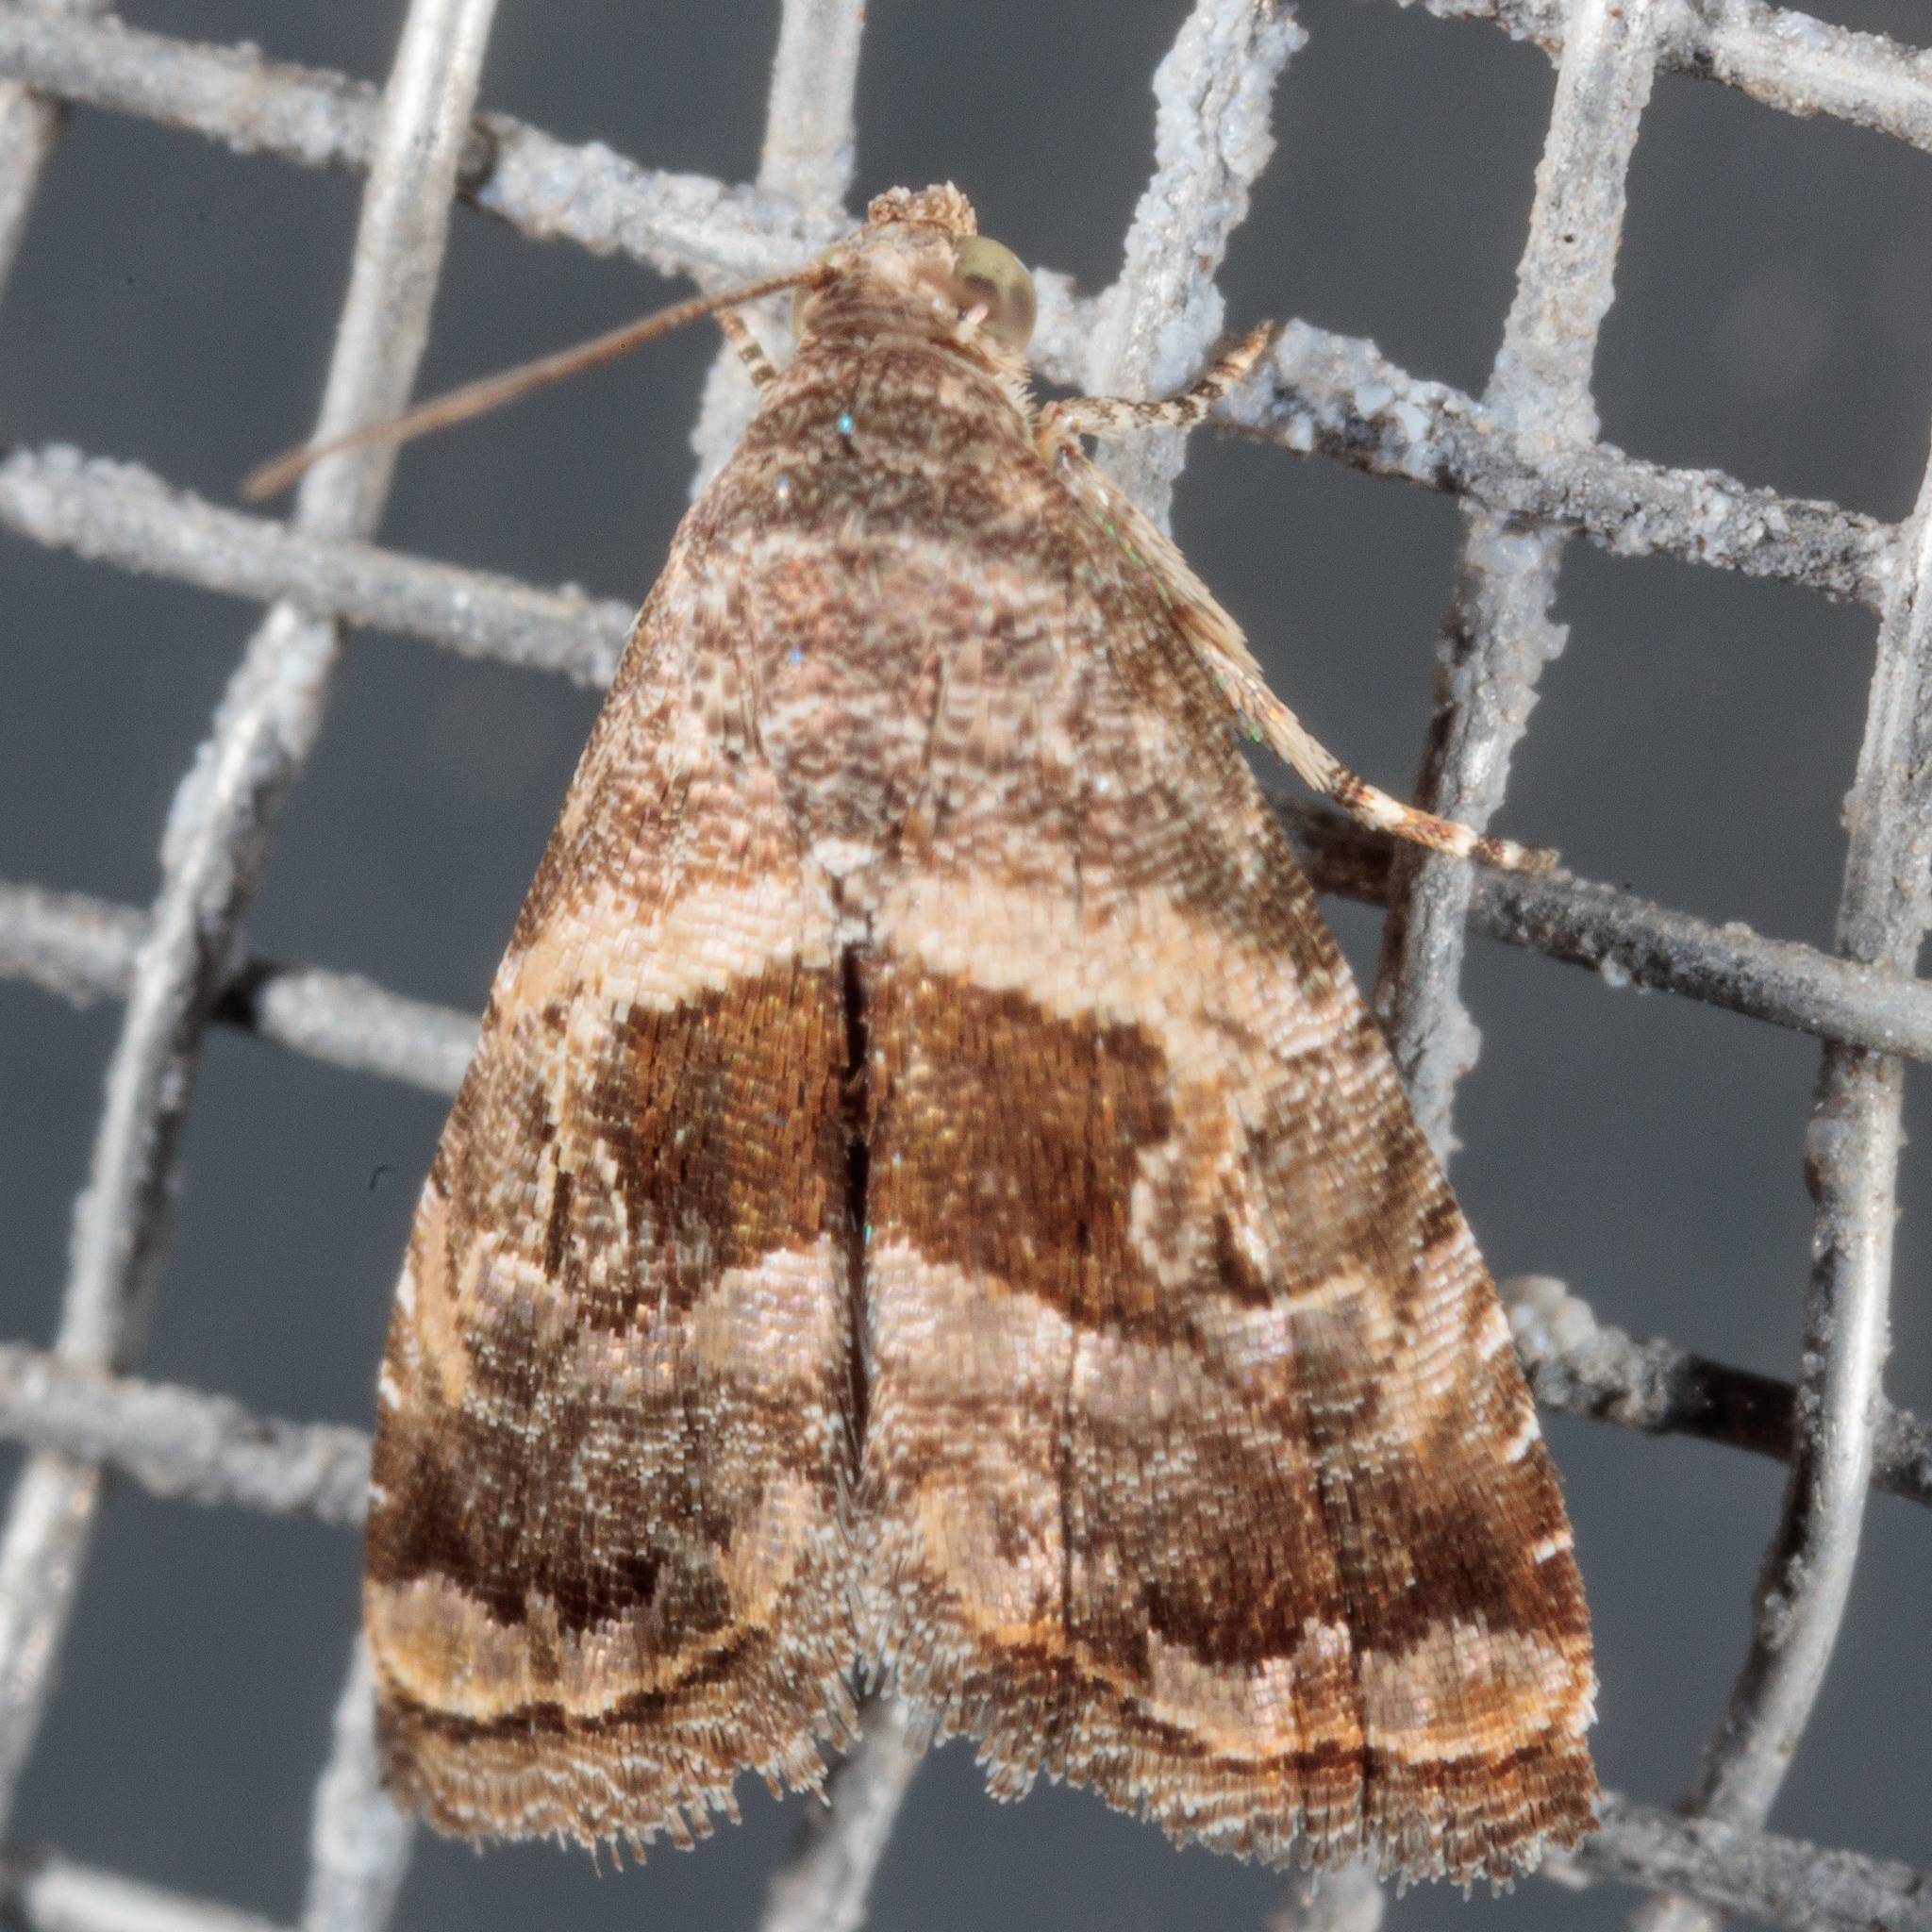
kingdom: Animalia
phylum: Arthropoda
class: Insecta
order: Lepidoptera
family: Noctuidae
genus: Tripudia
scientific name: Tripudia quadrifera
